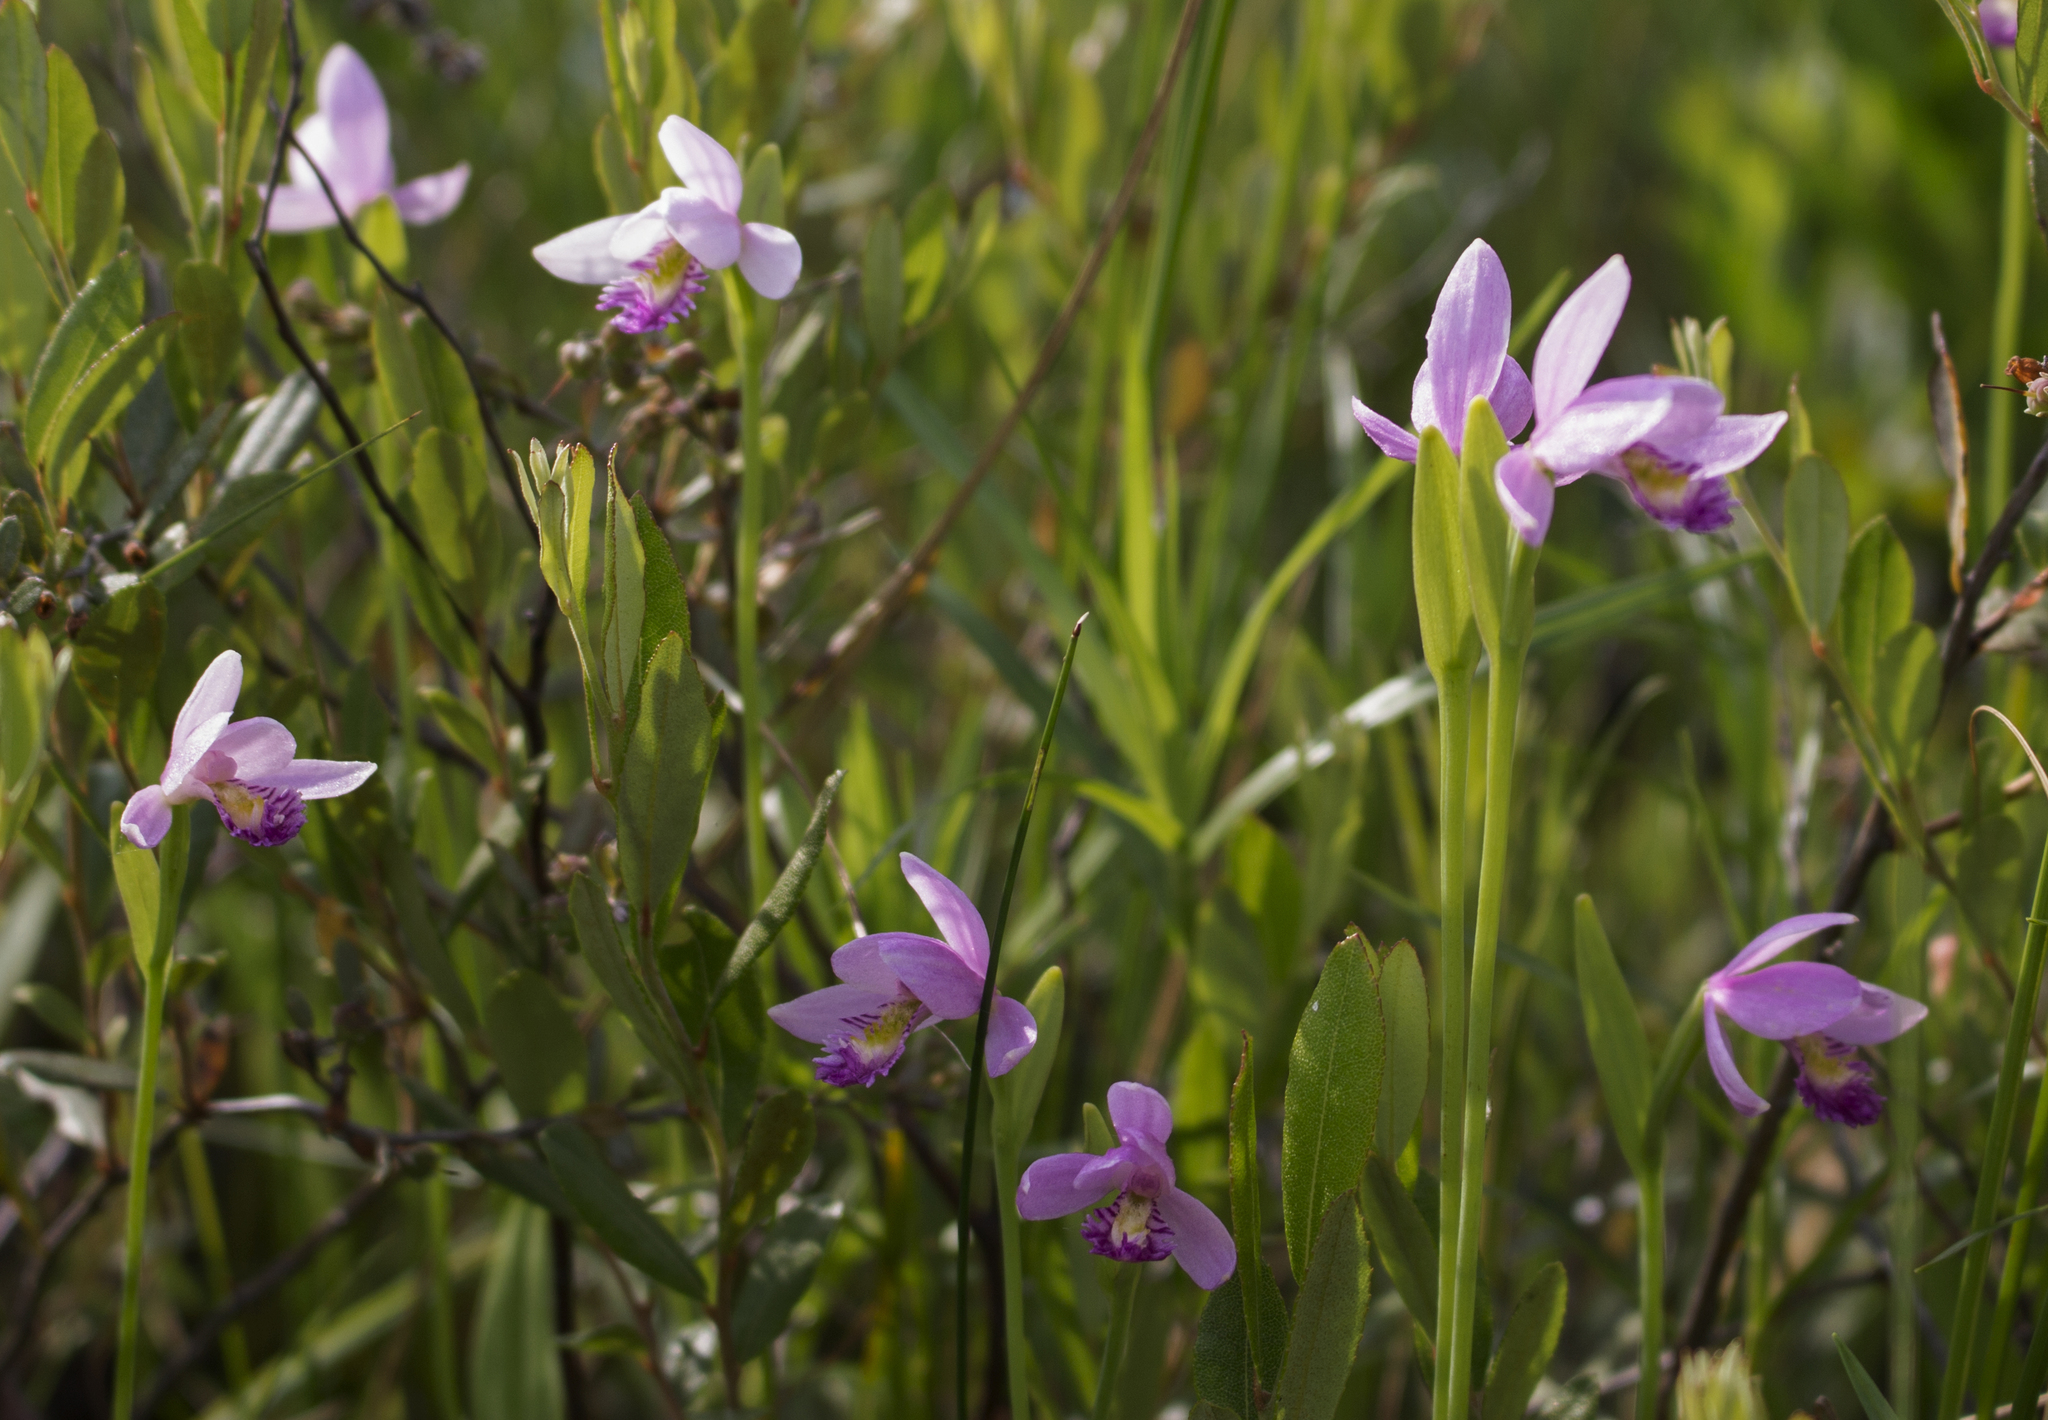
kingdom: Plantae
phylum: Tracheophyta
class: Liliopsida
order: Asparagales
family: Orchidaceae
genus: Pogonia
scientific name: Pogonia ophioglossoides
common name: Rose pogonia
